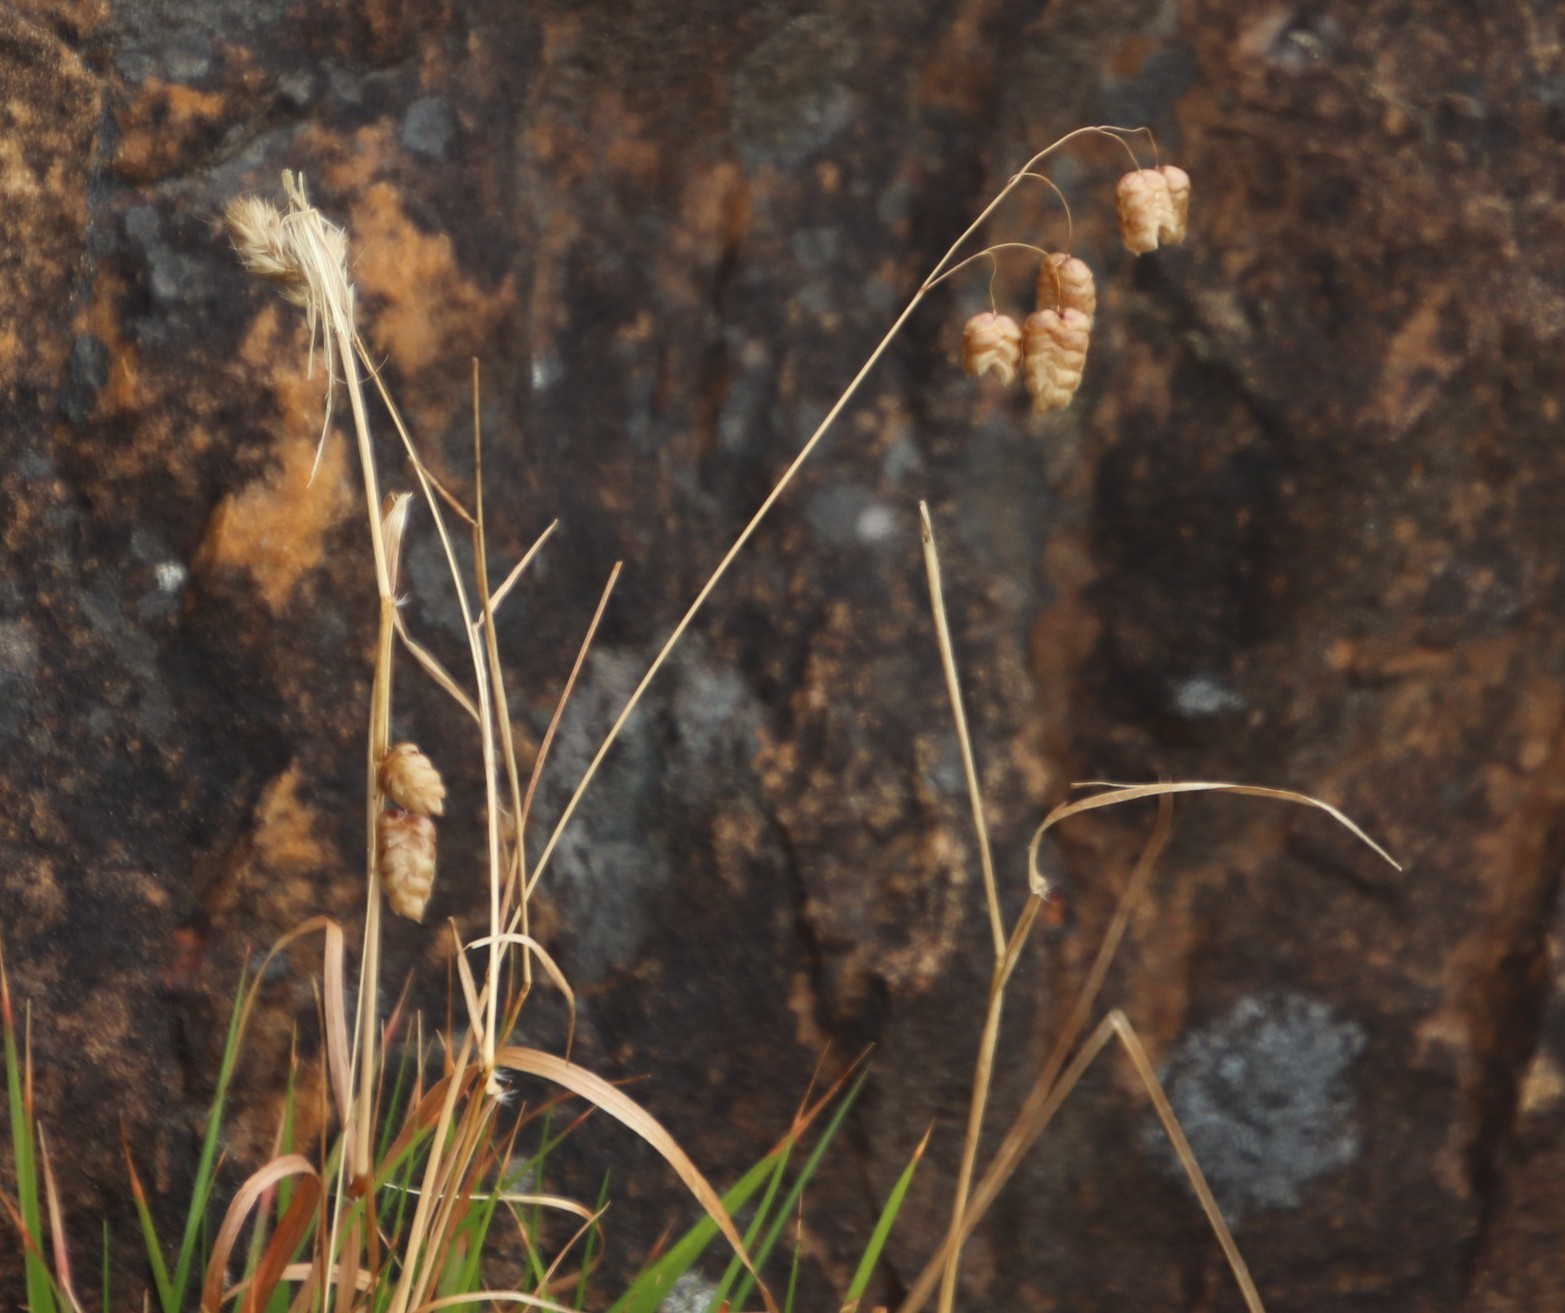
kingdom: Plantae
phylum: Tracheophyta
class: Liliopsida
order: Poales
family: Poaceae
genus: Briza
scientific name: Briza maxima
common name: Big quakinggrass
